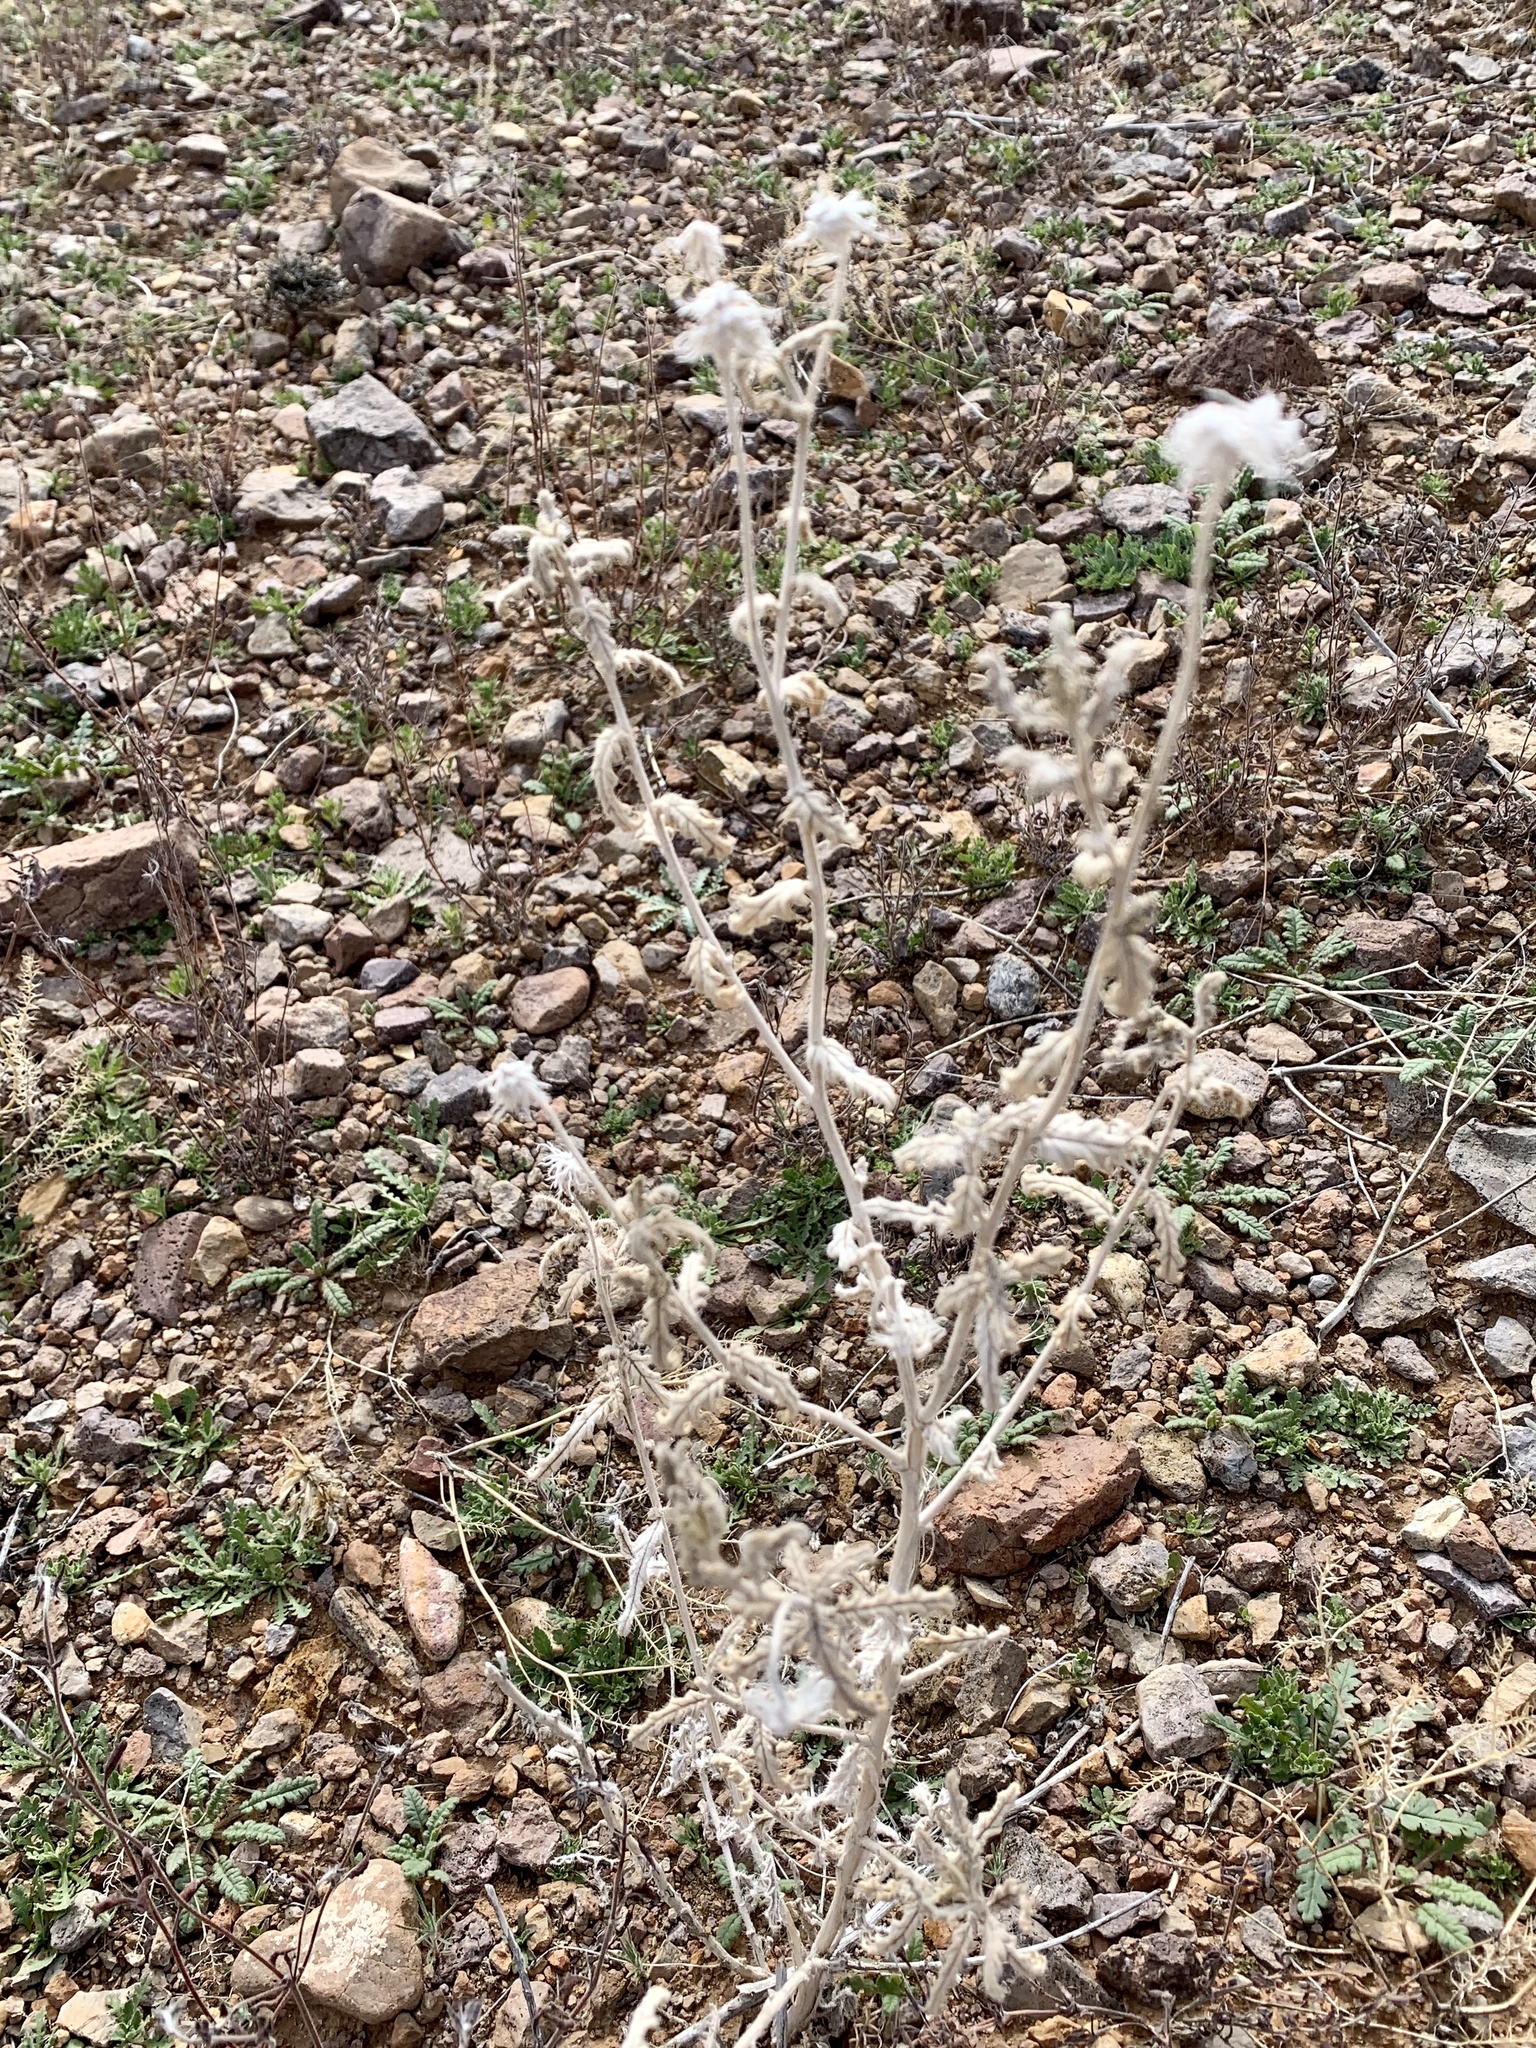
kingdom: Plantae
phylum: Tracheophyta
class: Magnoliopsida
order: Cornales
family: Loasaceae
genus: Cevallia
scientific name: Cevallia sinuata
